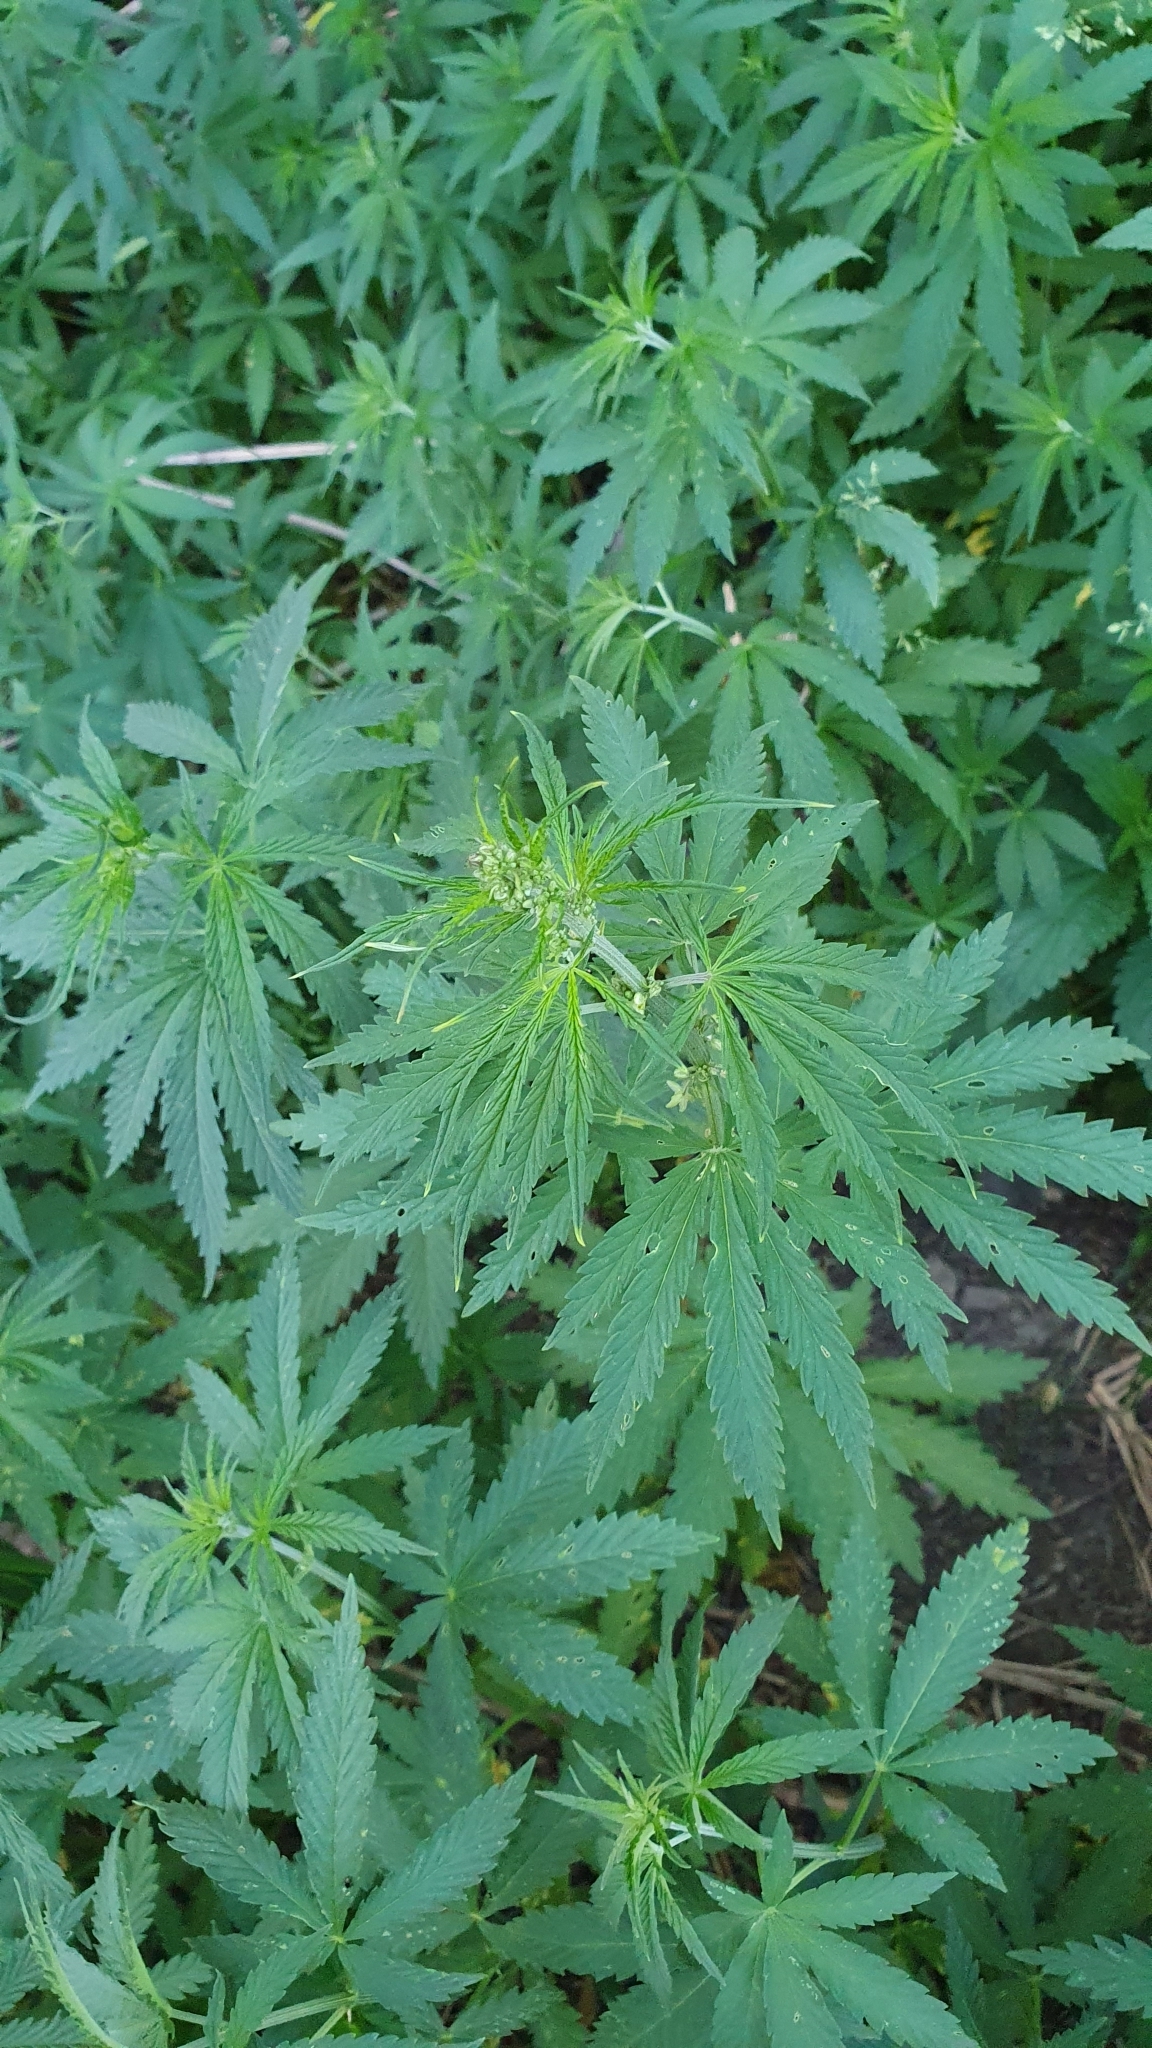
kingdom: Plantae
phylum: Tracheophyta
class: Magnoliopsida
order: Rosales
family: Cannabaceae
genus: Cannabis
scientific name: Cannabis sativa
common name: Hemp
